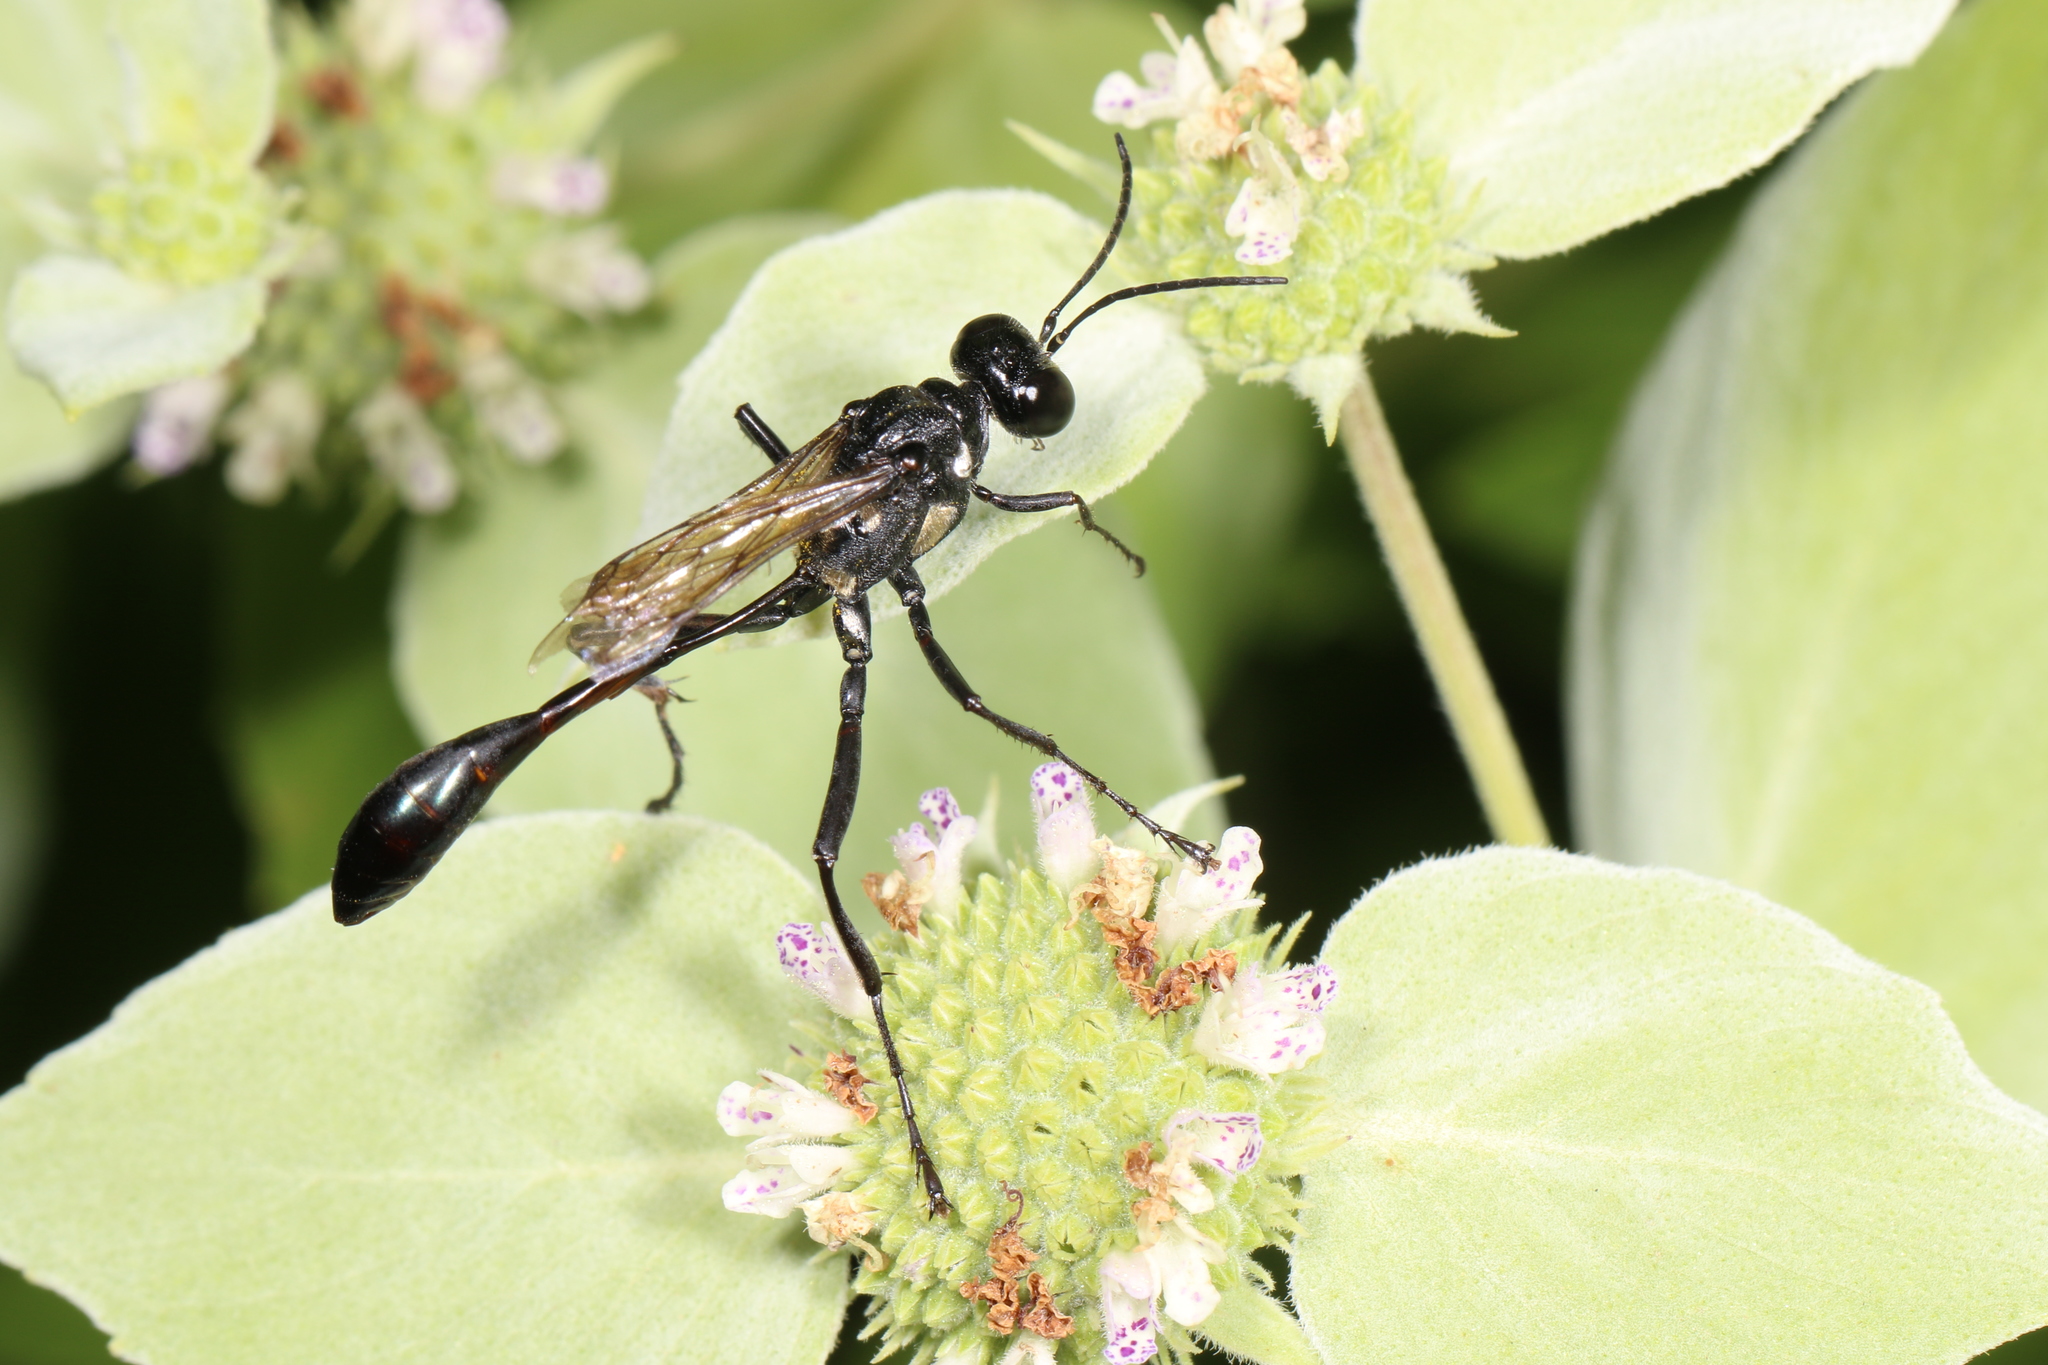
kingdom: Animalia
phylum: Arthropoda
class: Insecta
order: Hymenoptera
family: Sphecidae
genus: Eremnophila
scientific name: Eremnophila aureonotata
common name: Gold-marked thread-waisted wasp
